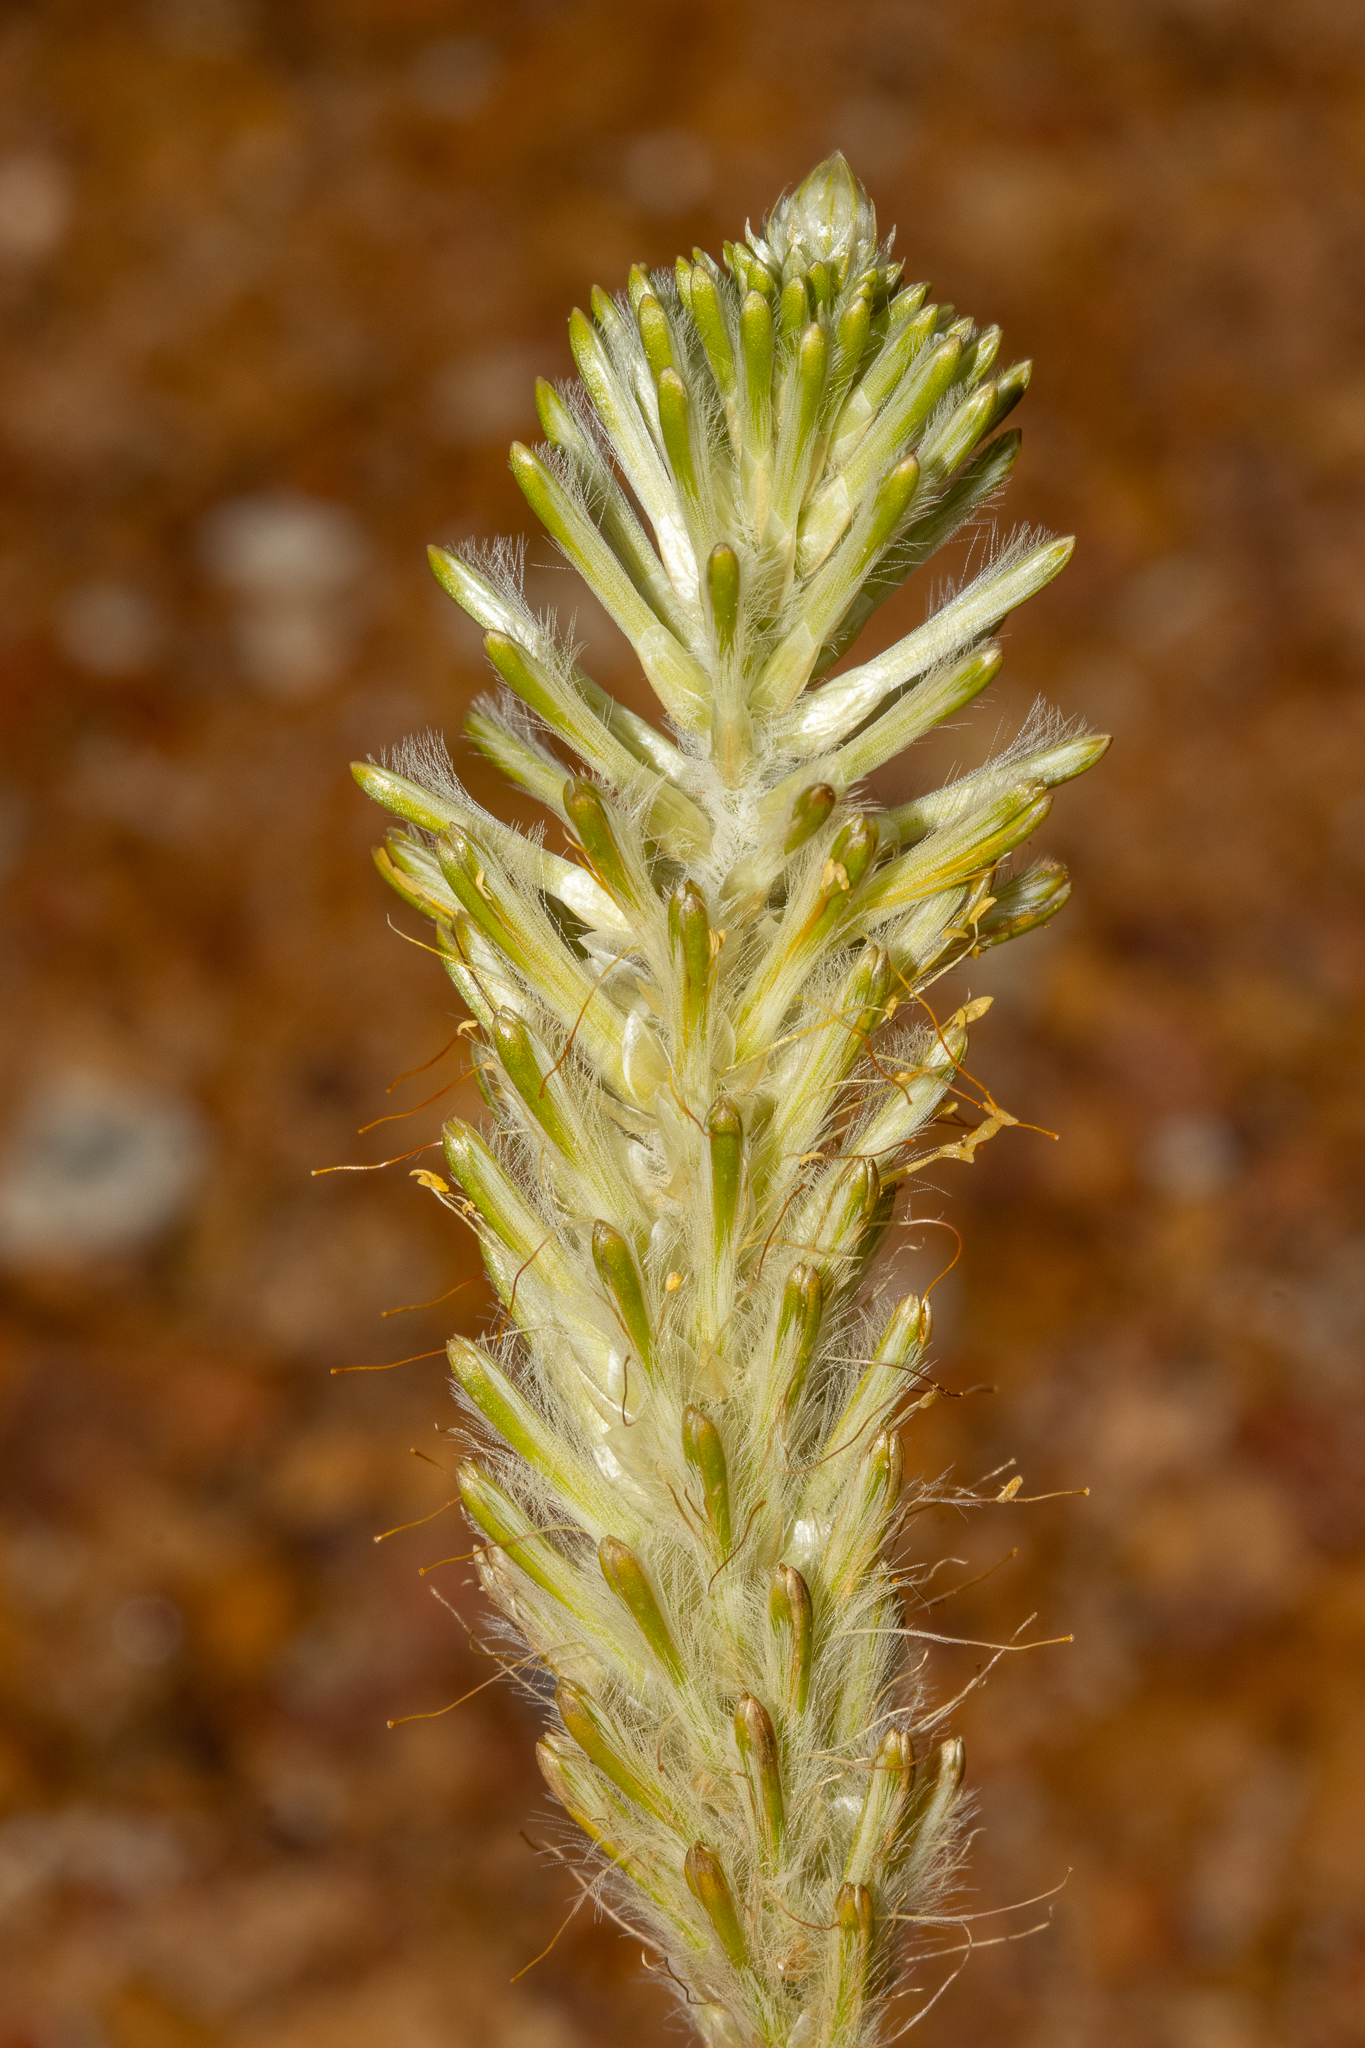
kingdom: Plantae
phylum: Tracheophyta
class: Magnoliopsida
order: Caryophyllales
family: Amaranthaceae
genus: Ptilotus
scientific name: Ptilotus polystachyus
